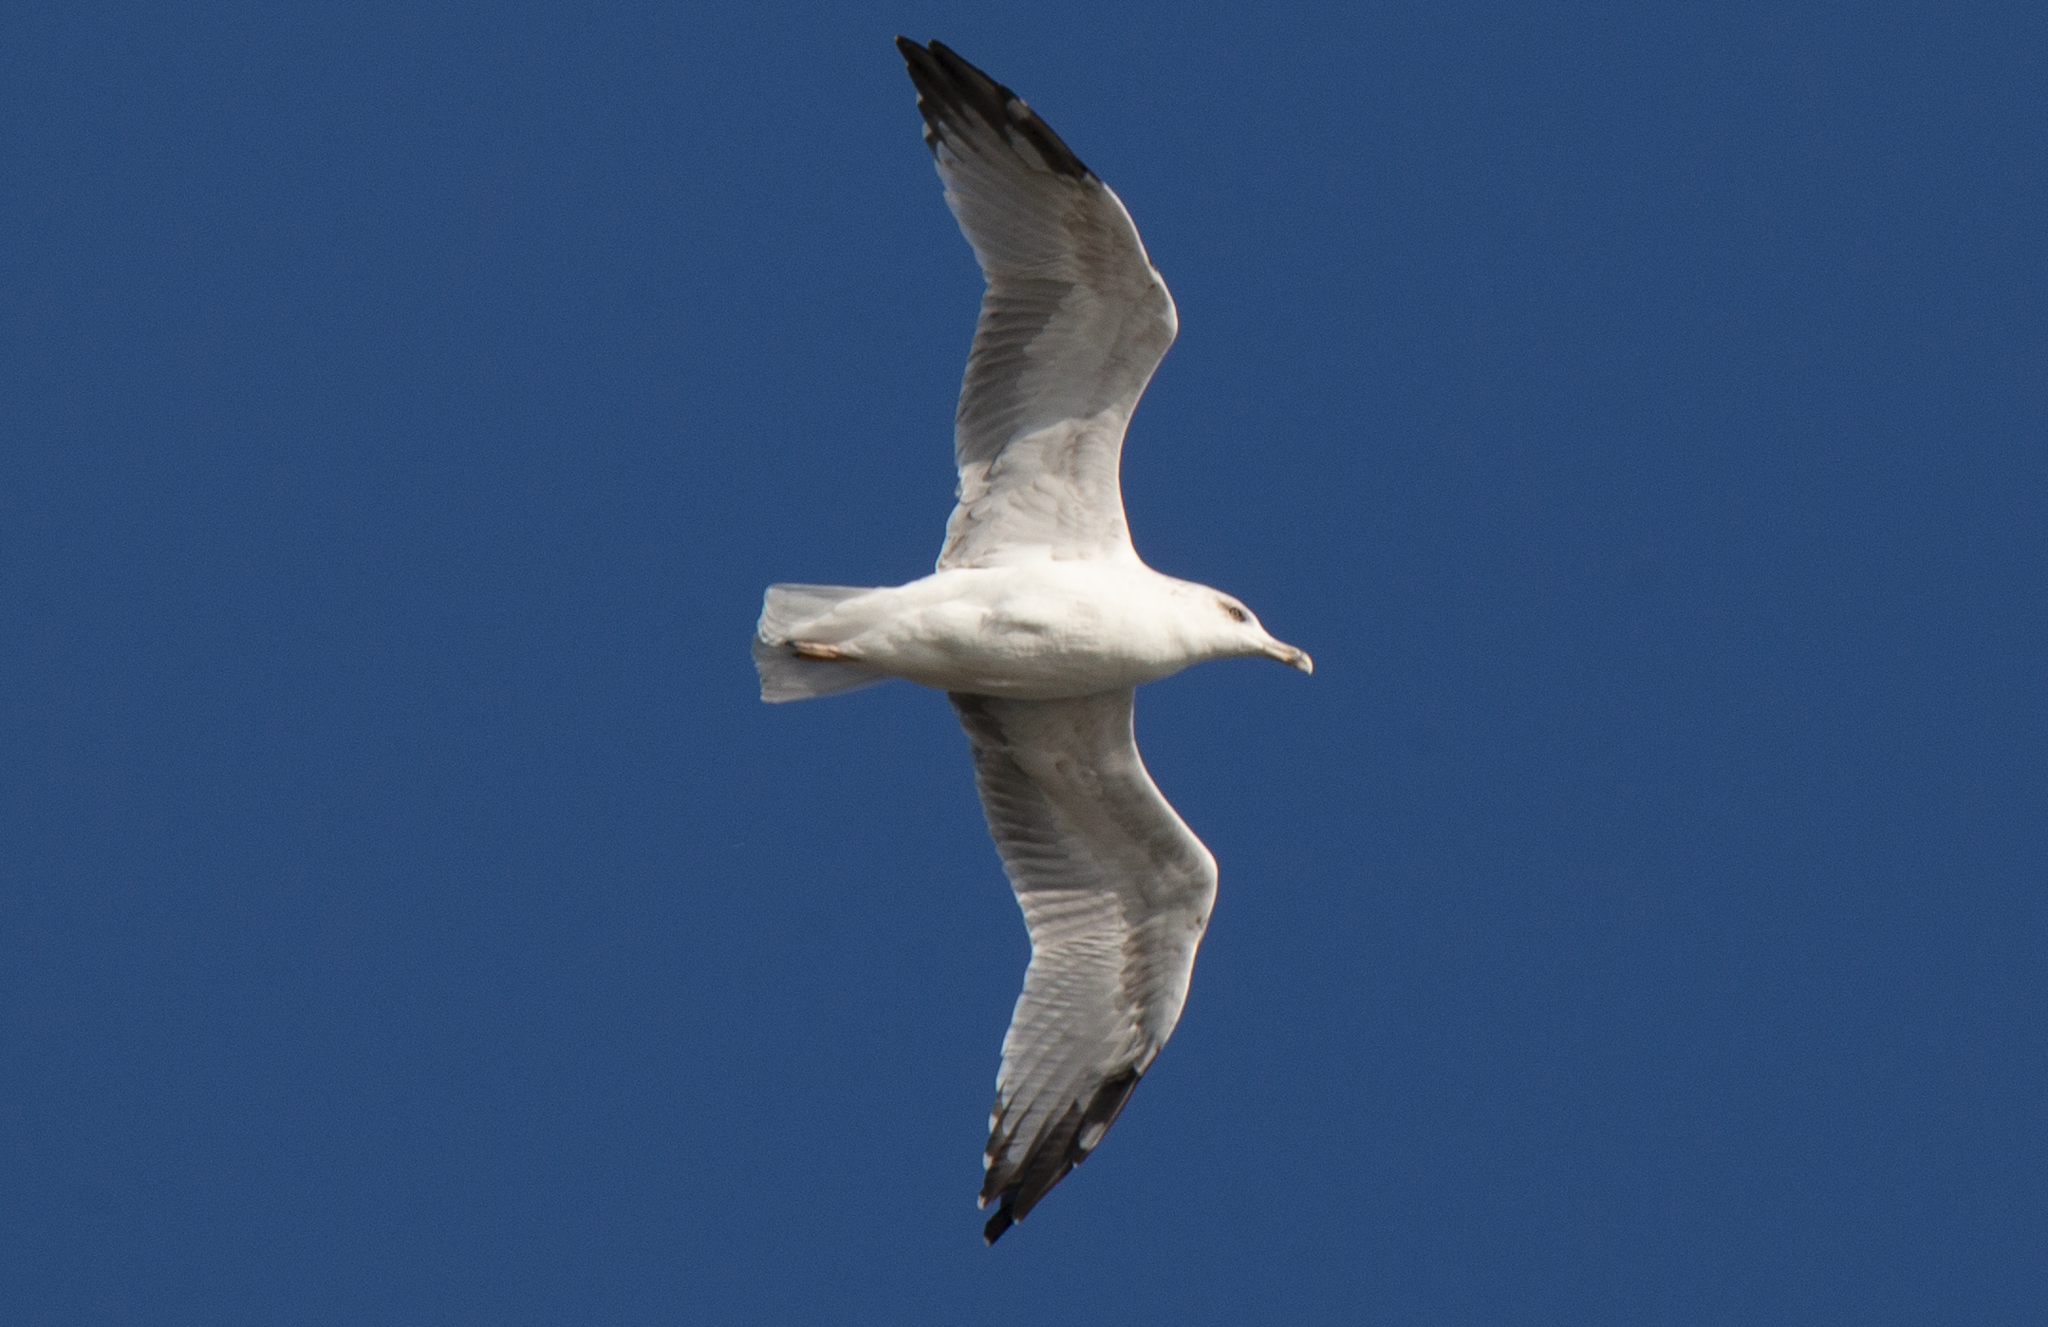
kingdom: Animalia
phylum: Chordata
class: Aves
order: Charadriiformes
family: Laridae
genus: Larus
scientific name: Larus michahellis
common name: Yellow-legged gull
